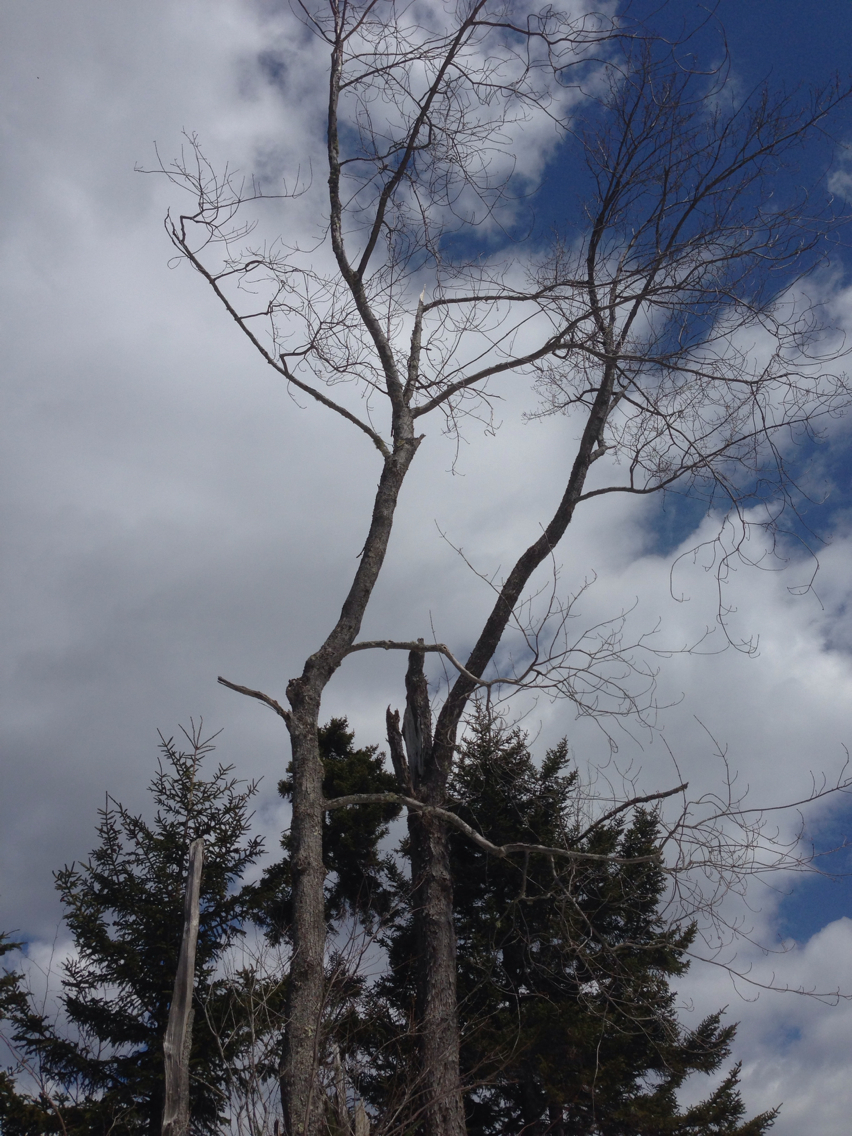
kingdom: Plantae
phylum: Tracheophyta
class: Magnoliopsida
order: Sapindales
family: Sapindaceae
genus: Acer
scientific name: Acer saccharum
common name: Sugar maple
